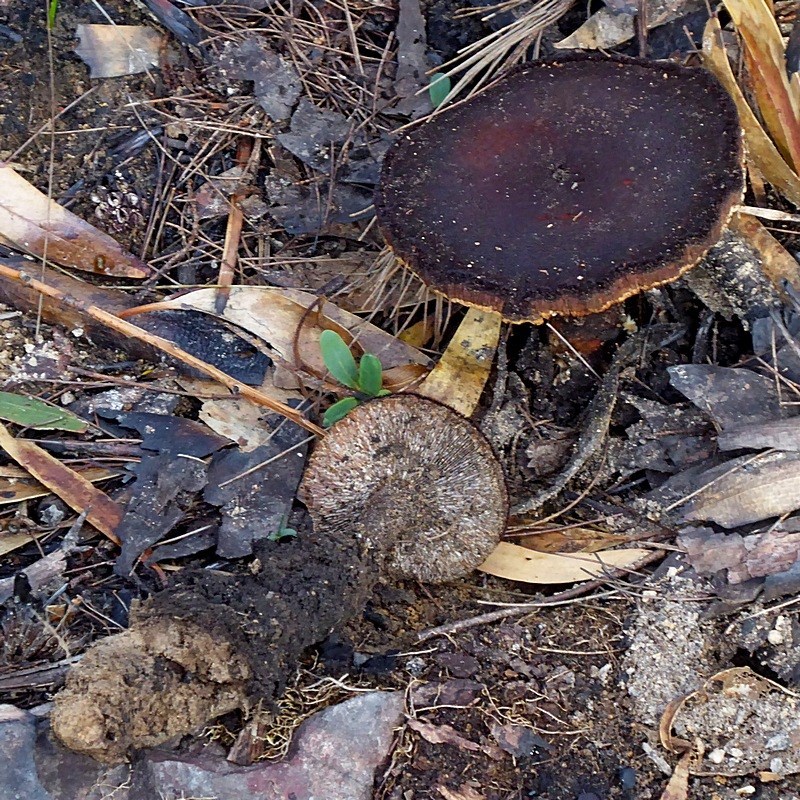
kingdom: Fungi
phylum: Basidiomycota
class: Agaricomycetes
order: Gloeophyllales
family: Gloeophyllaceae
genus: Neolentinus
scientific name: Neolentinus dactyloides
